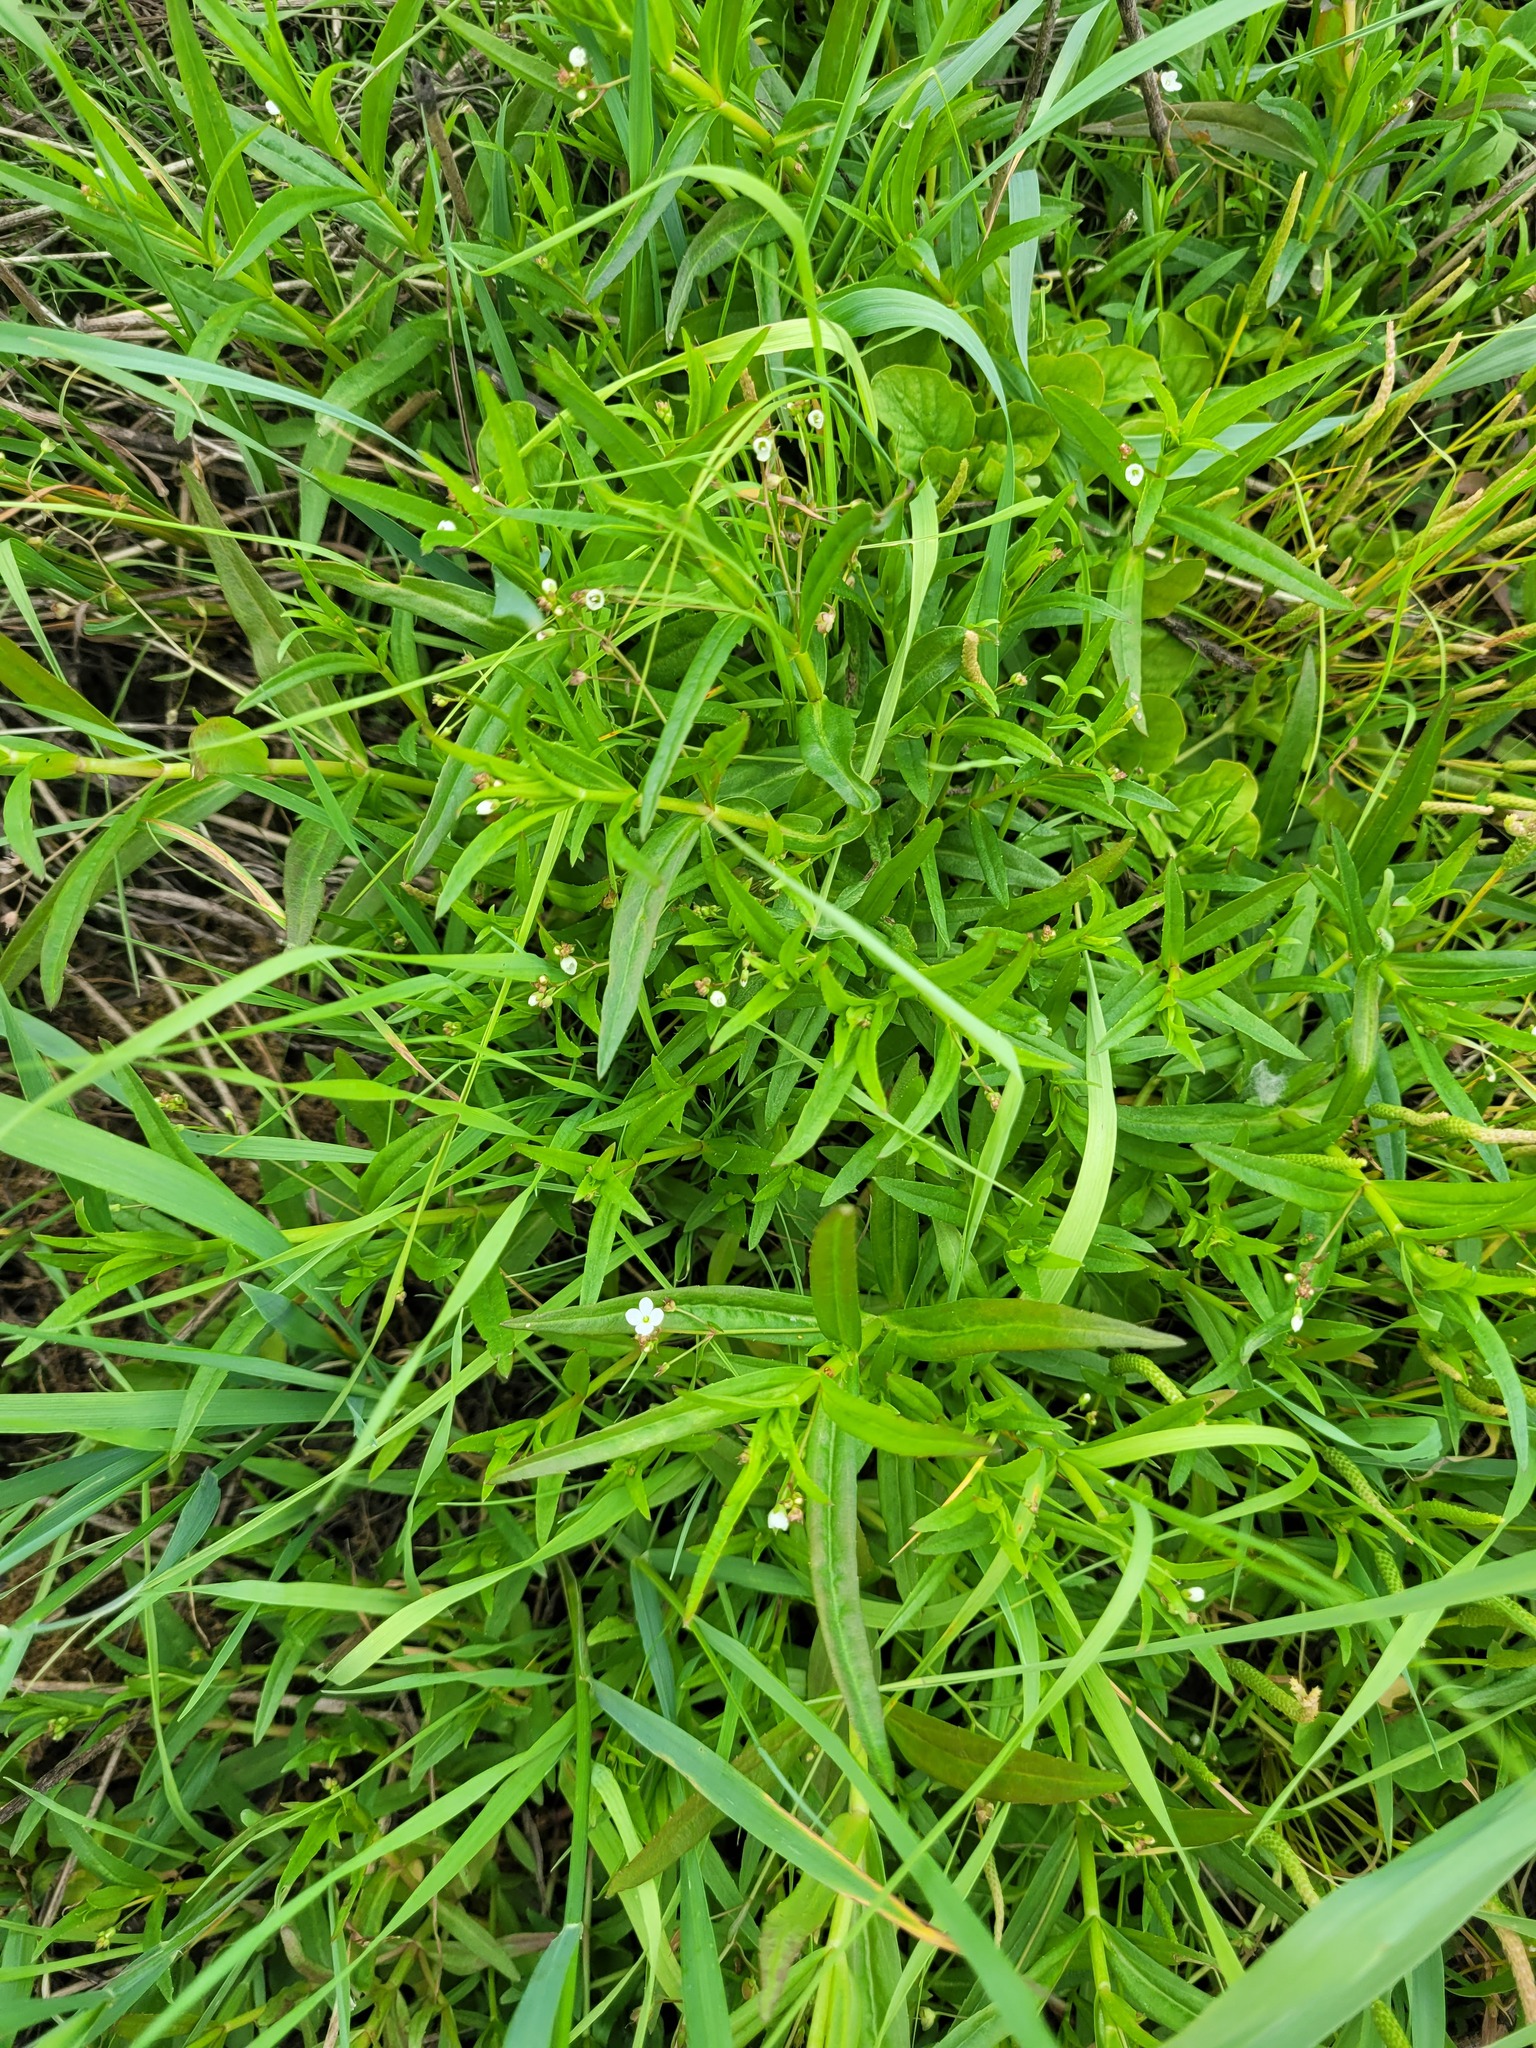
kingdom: Plantae
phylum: Tracheophyta
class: Magnoliopsida
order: Lamiales
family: Plantaginaceae
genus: Veronica
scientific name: Veronica scutellata
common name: Marsh speedwell
